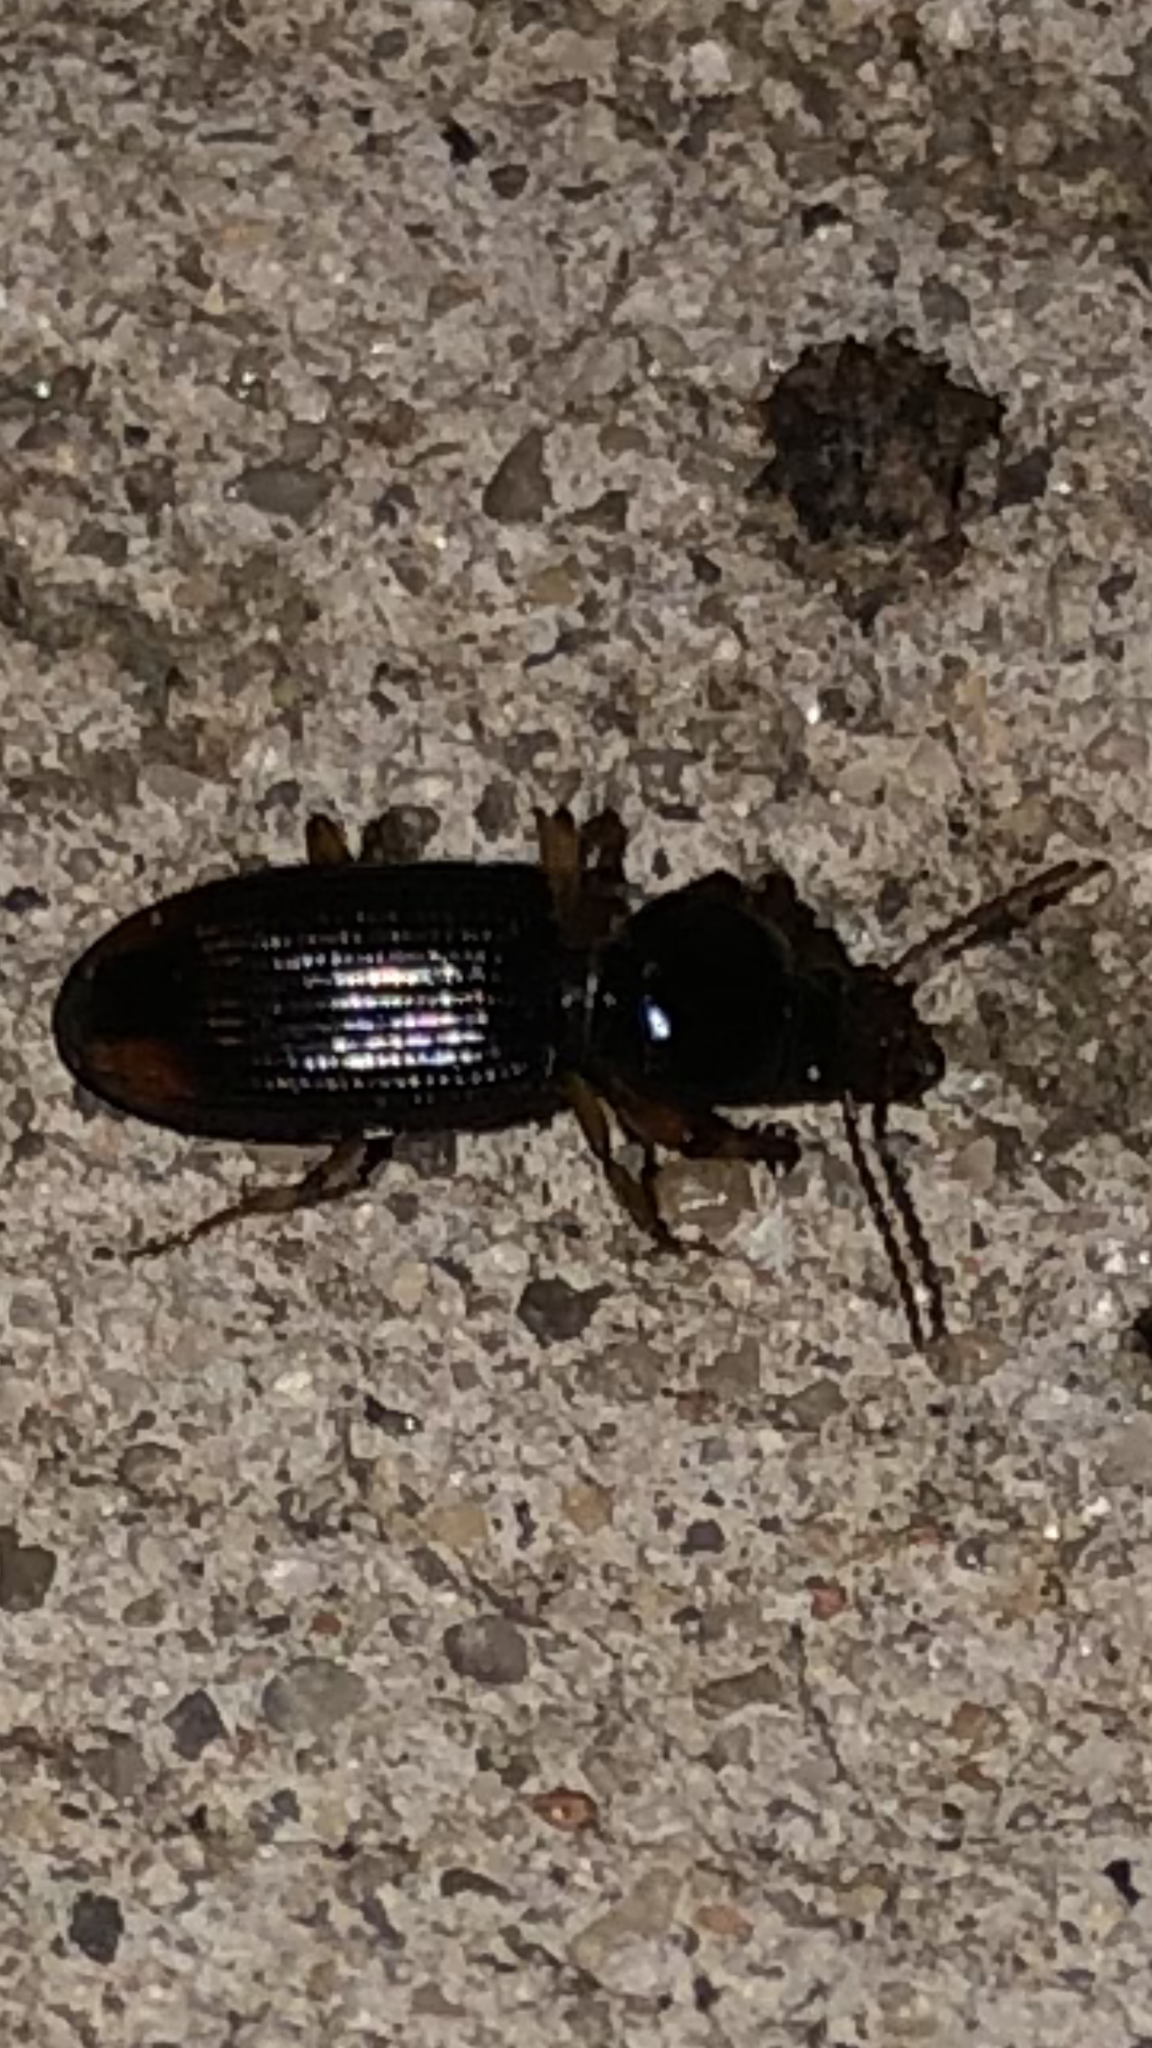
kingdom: Animalia
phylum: Arthropoda
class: Insecta
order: Coleoptera
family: Carabidae
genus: Aspidoglossa
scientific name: Aspidoglossa subangulata
